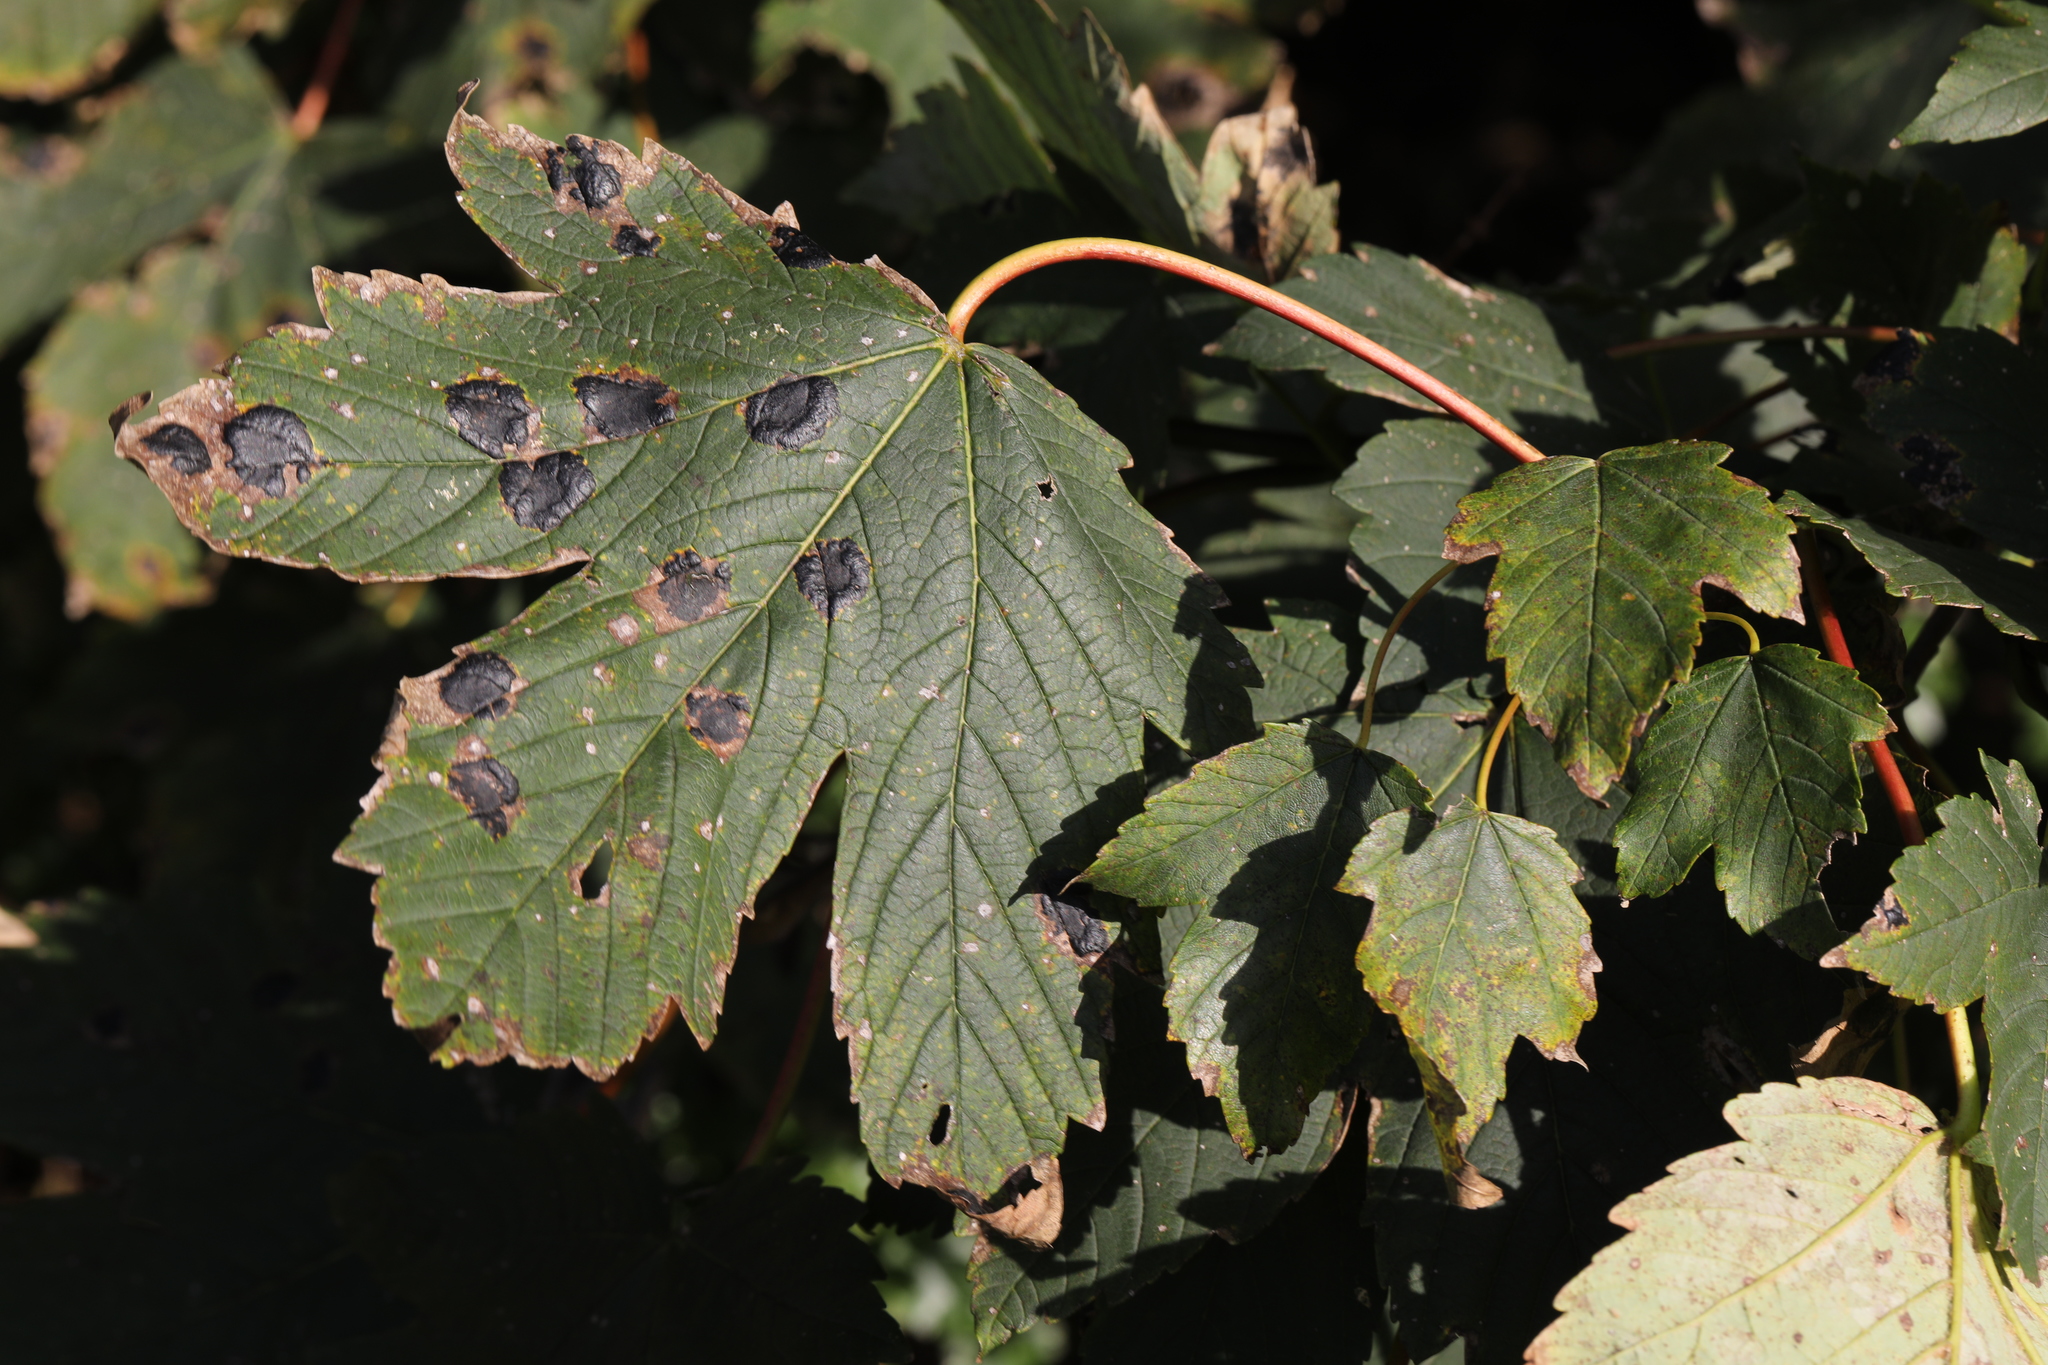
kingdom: Fungi
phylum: Ascomycota
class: Leotiomycetes
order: Rhytismatales
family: Rhytismataceae
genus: Rhytisma
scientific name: Rhytisma acerinum
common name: European tar spot
